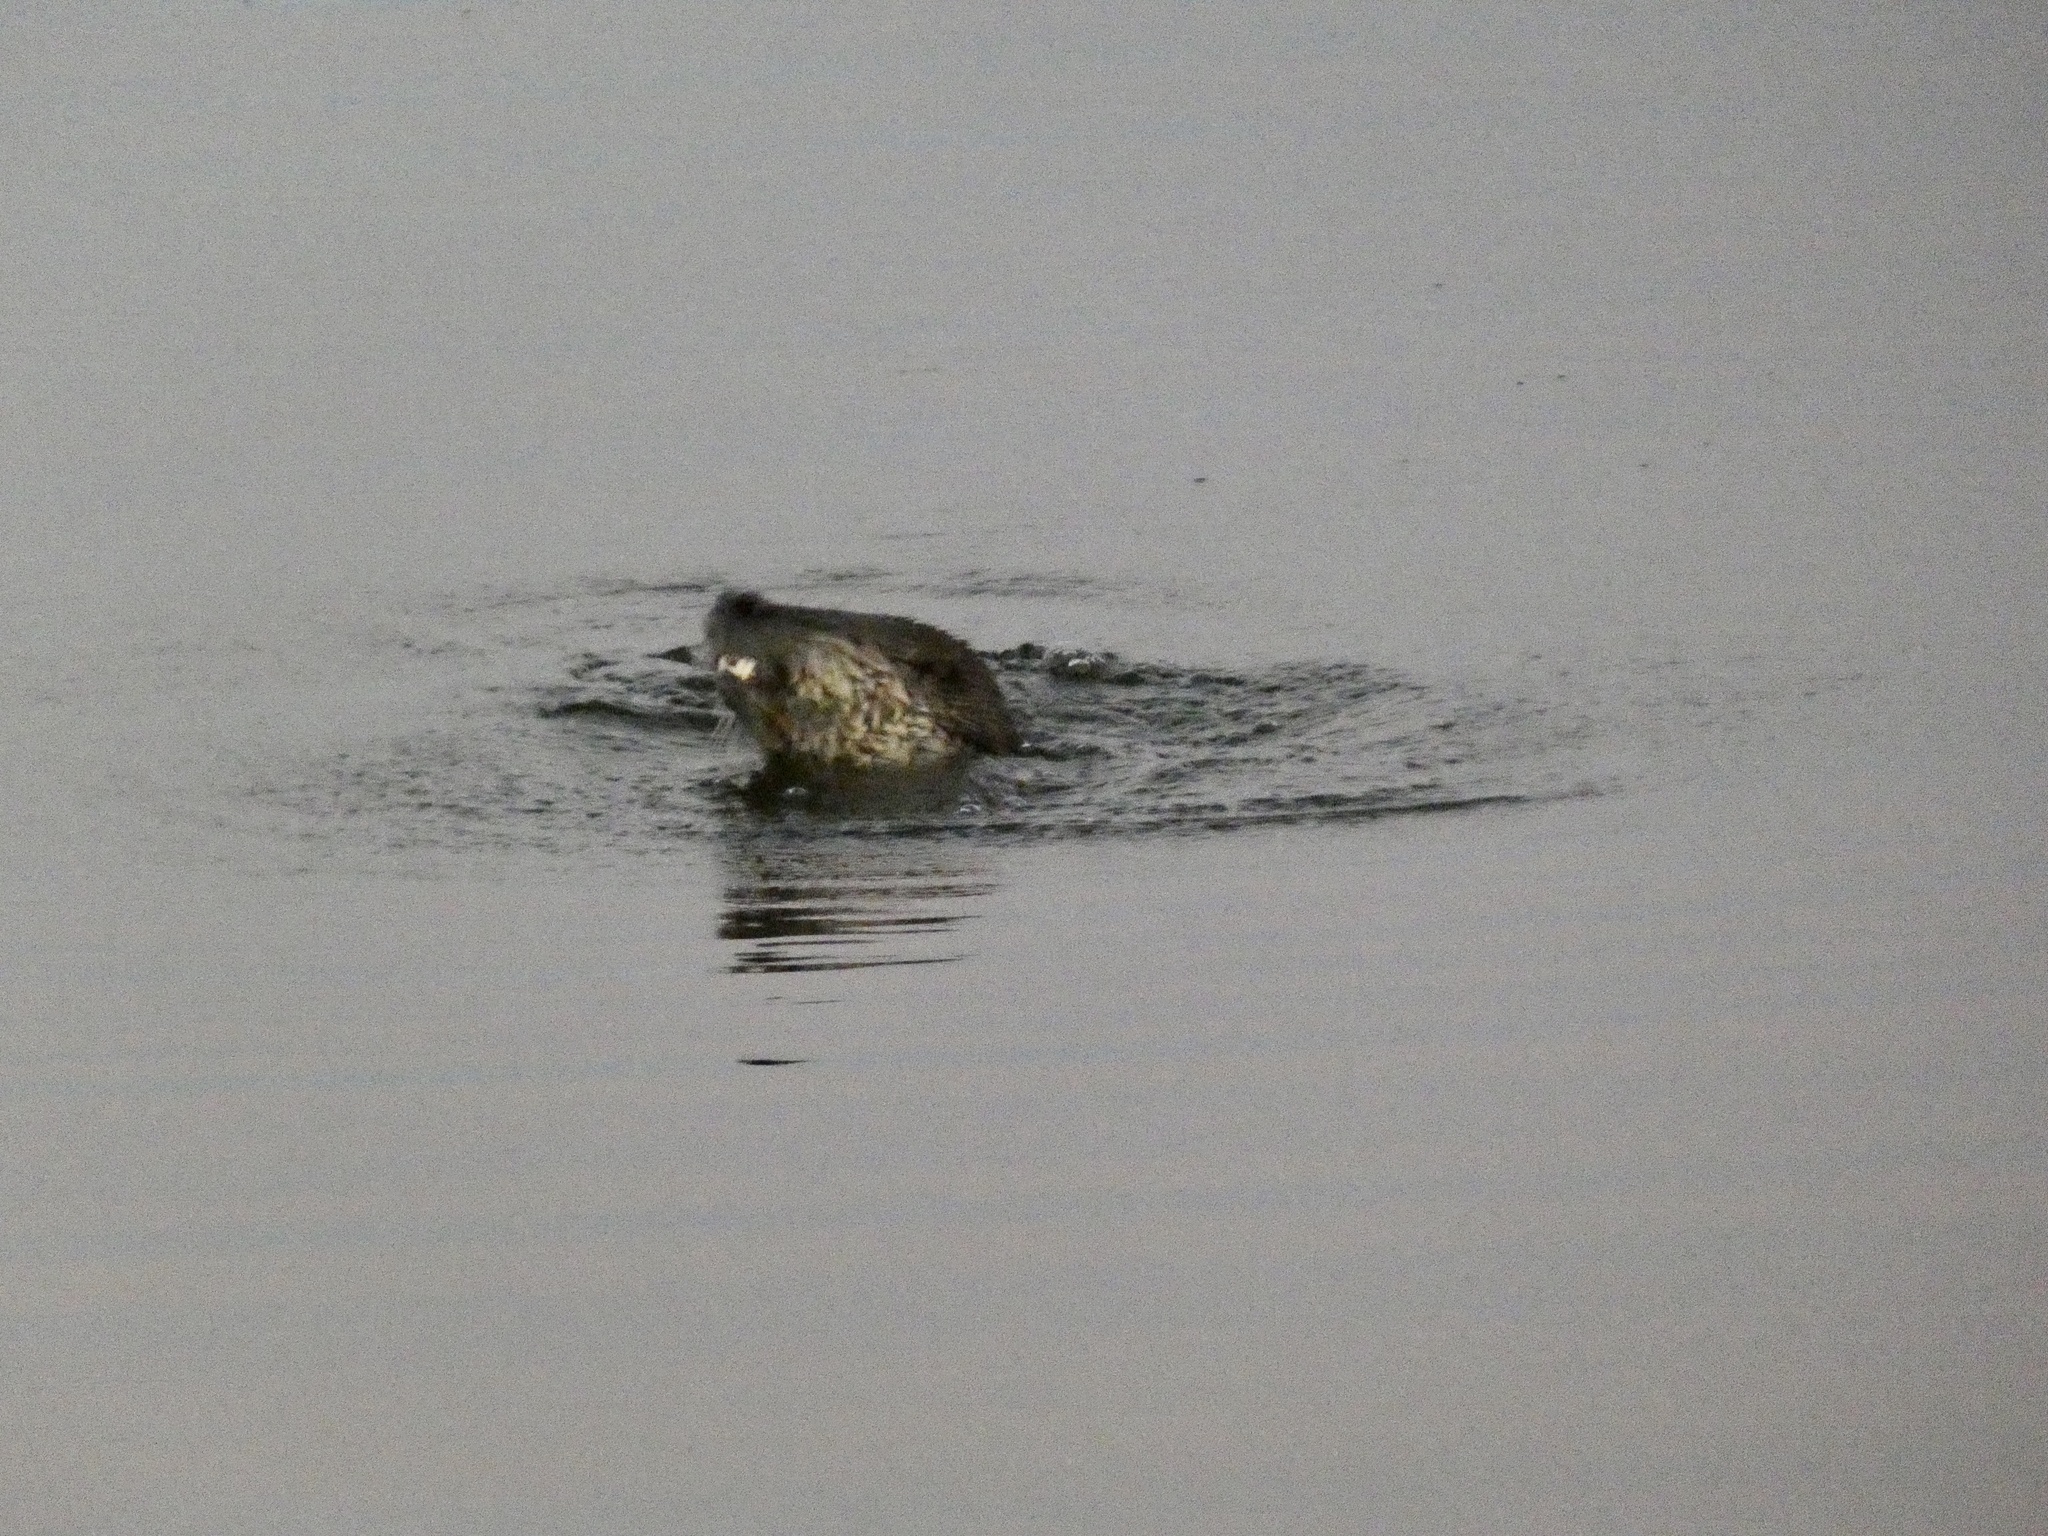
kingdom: Animalia
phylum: Chordata
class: Mammalia
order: Carnivora
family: Mustelidae
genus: Lontra
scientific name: Lontra canadensis
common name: North american river otter
